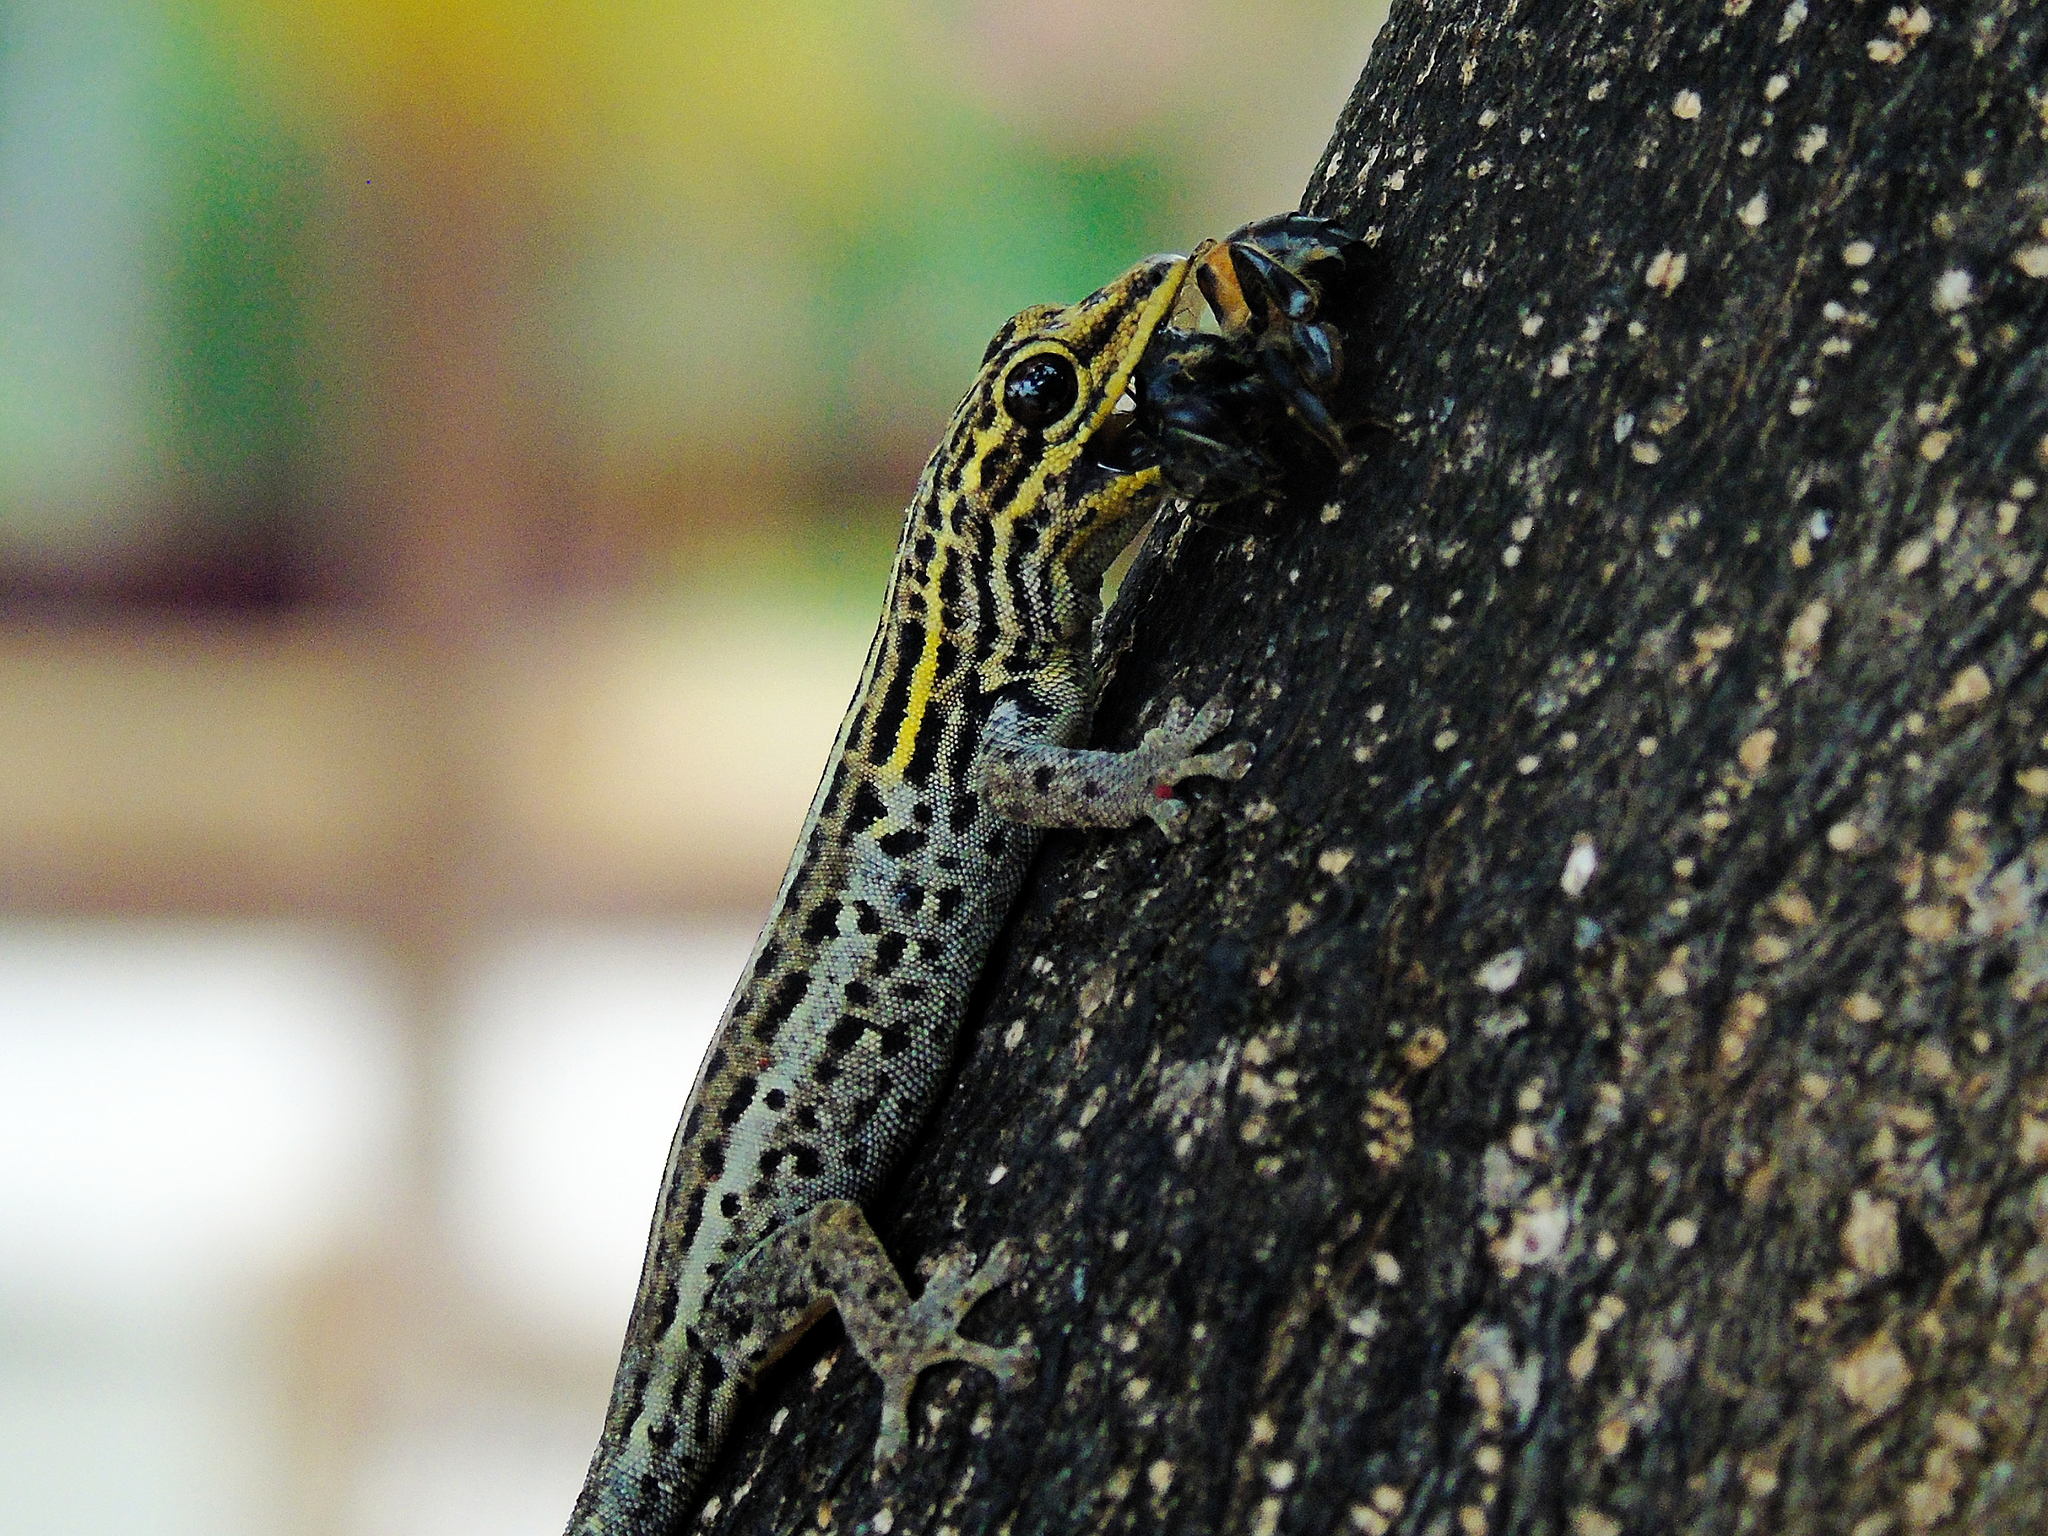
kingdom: Animalia
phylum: Chordata
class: Squamata
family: Gekkonidae
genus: Lygodactylus
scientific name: Lygodactylus picturatus
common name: Painted dwarf gecko
